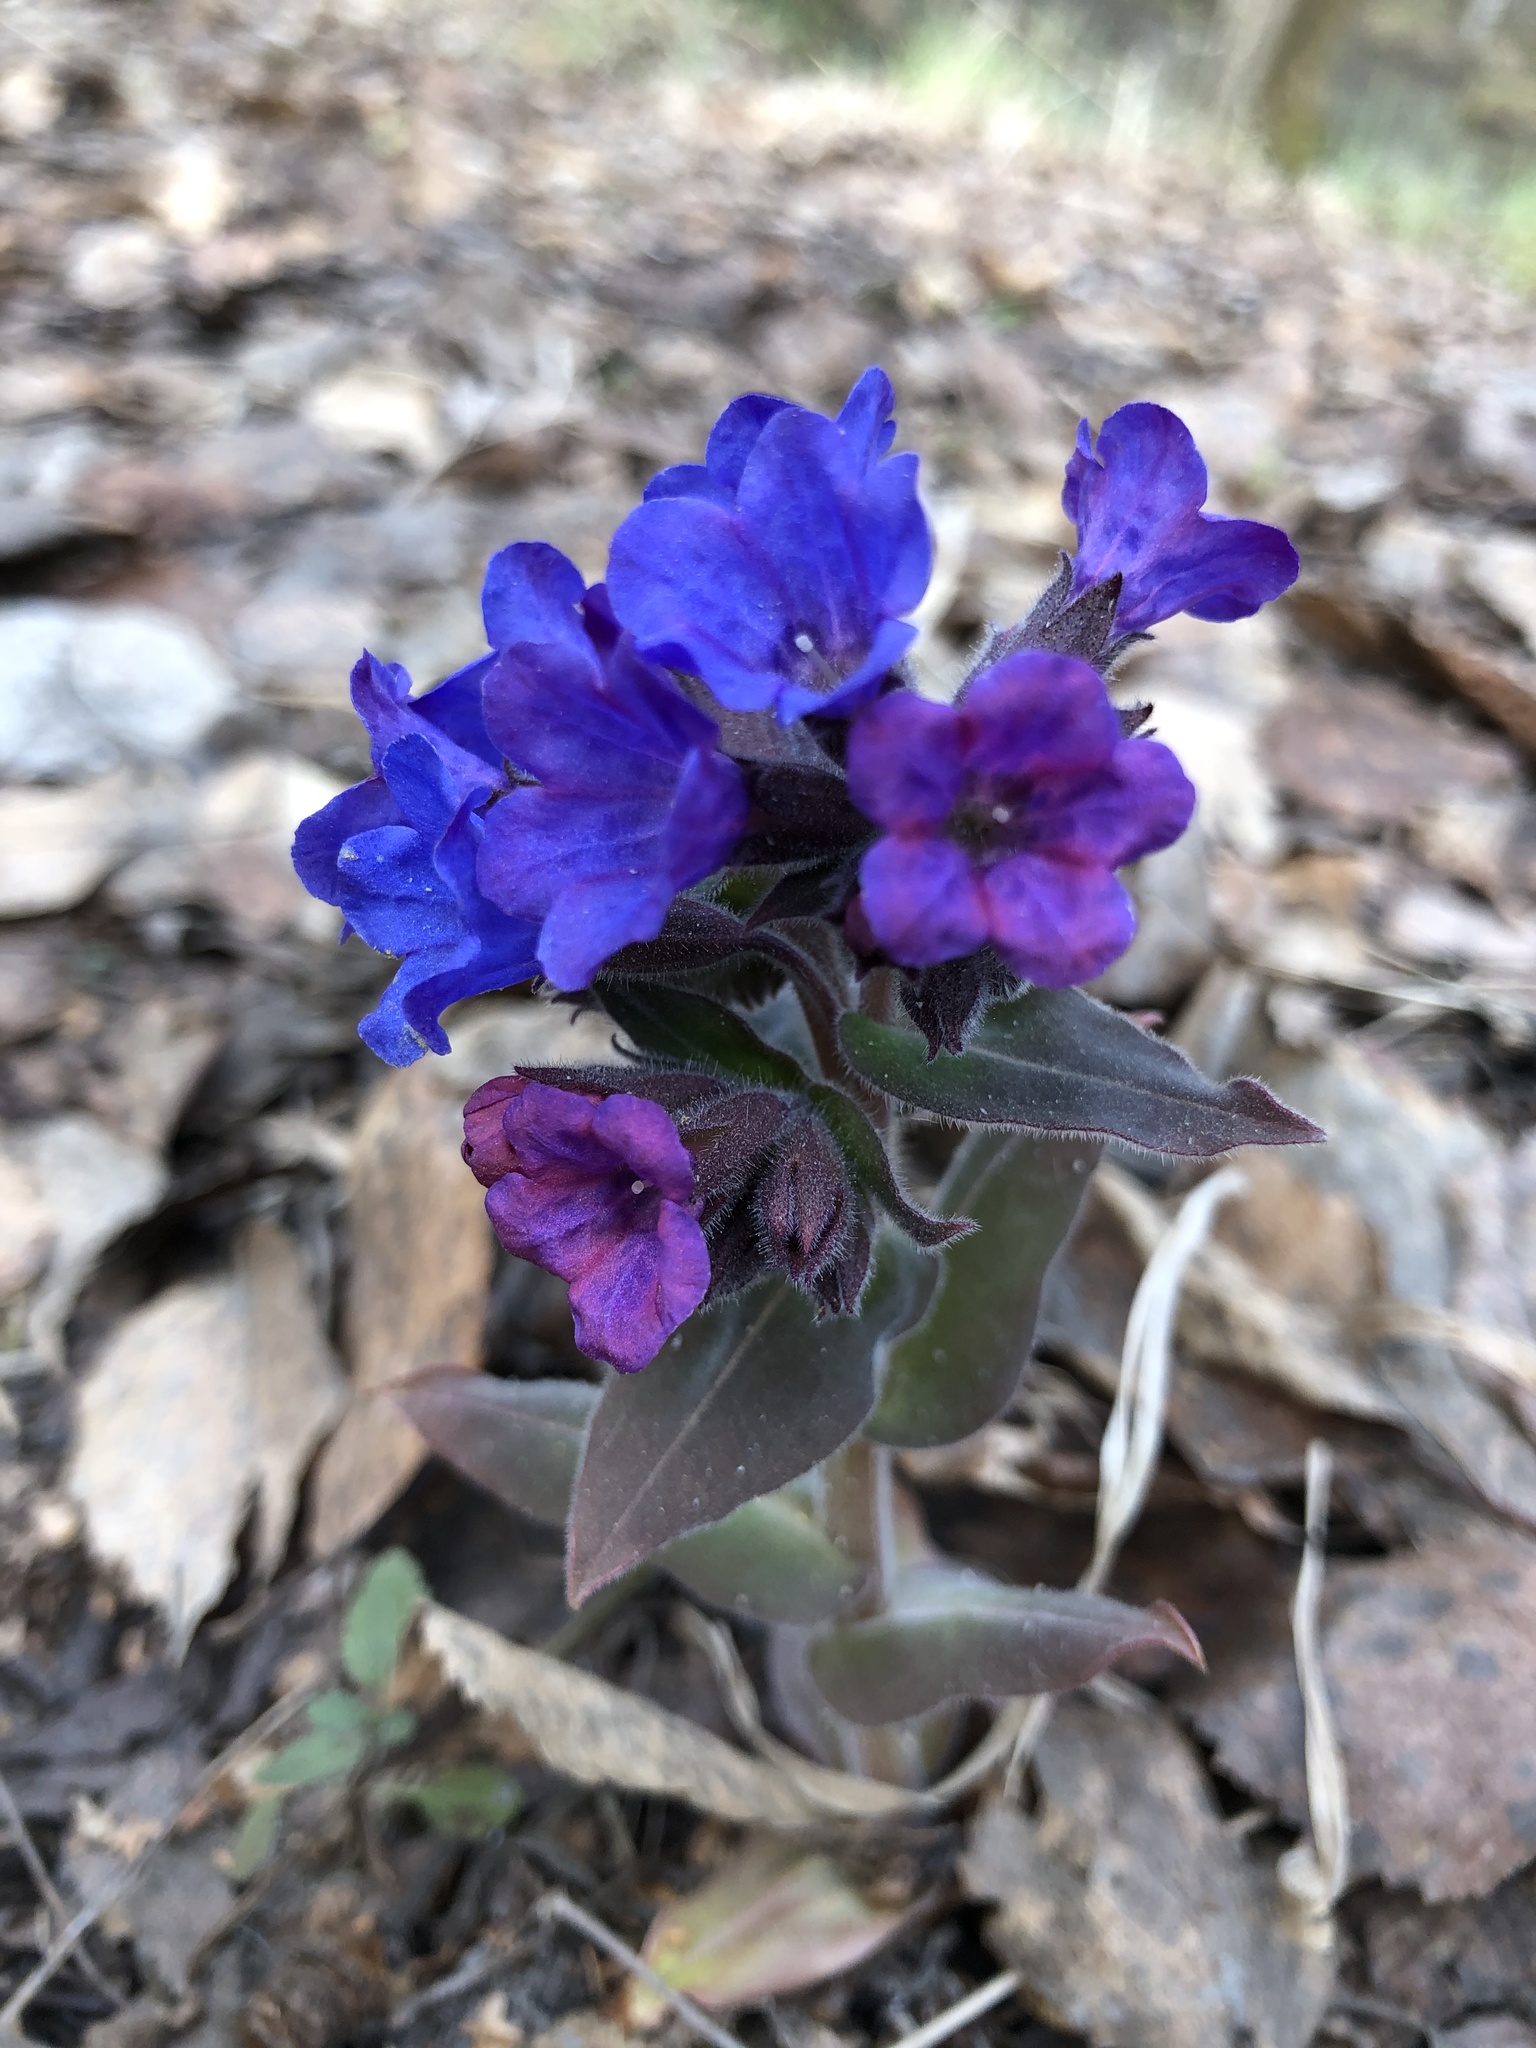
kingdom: Plantae
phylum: Tracheophyta
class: Magnoliopsida
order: Boraginales
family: Boraginaceae
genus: Pulmonaria
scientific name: Pulmonaria mollis
